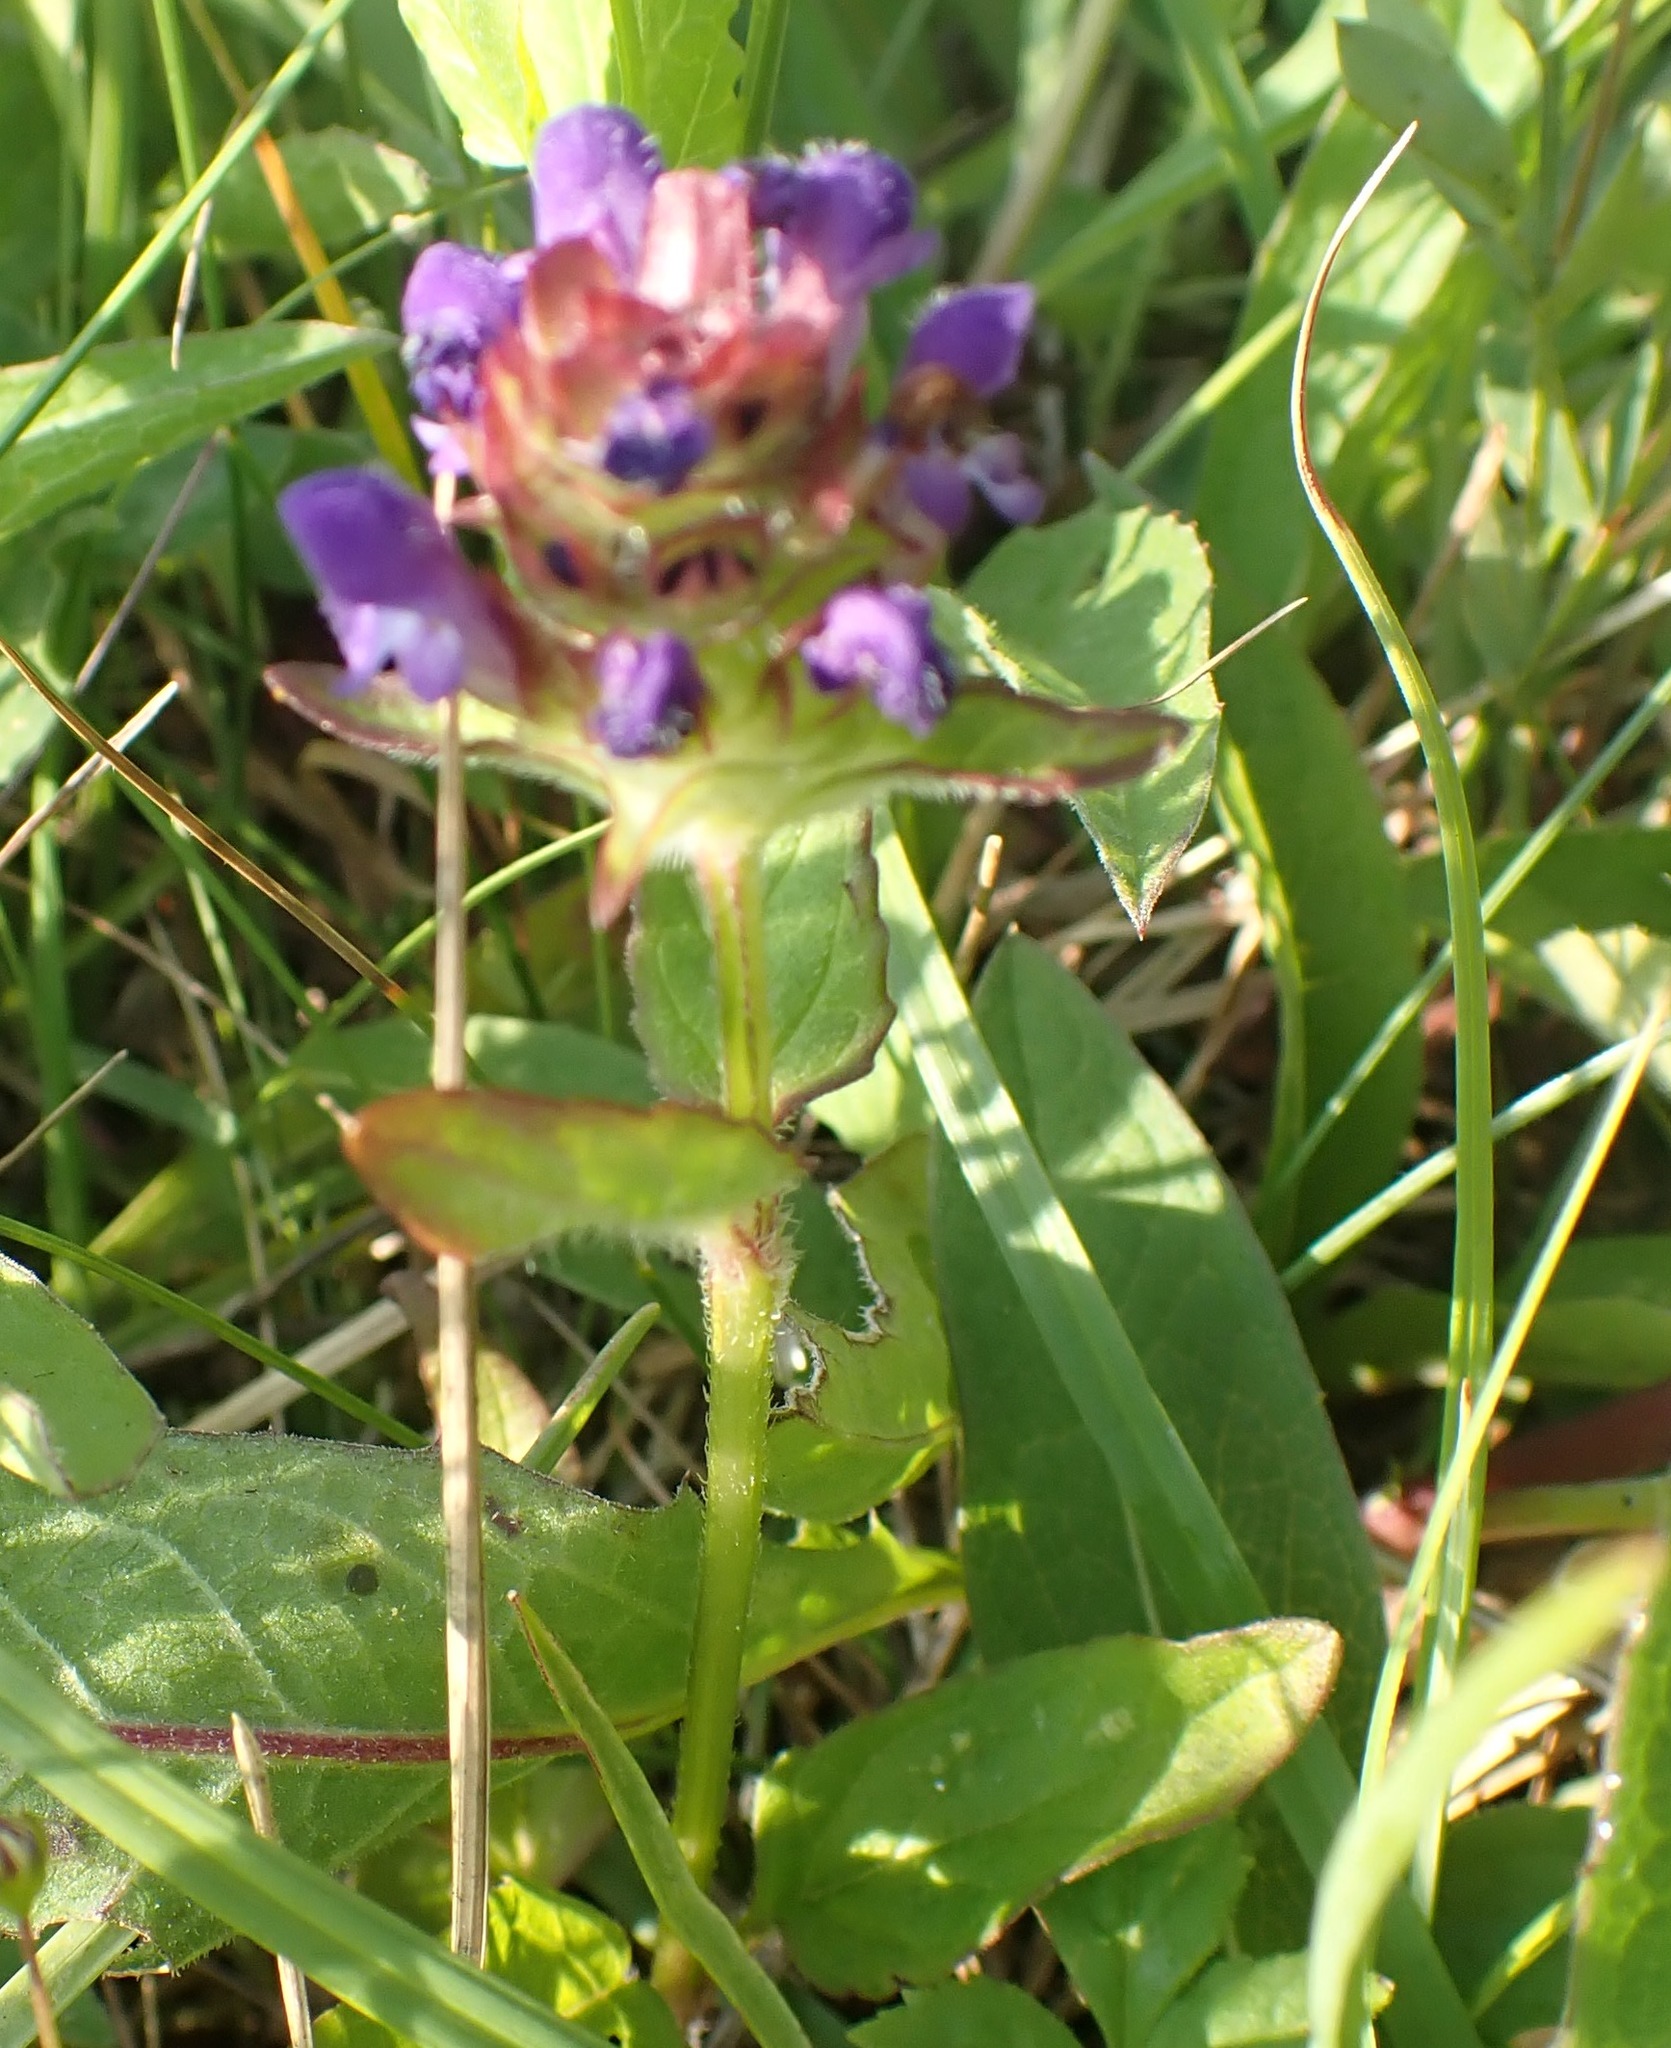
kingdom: Plantae
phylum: Tracheophyta
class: Magnoliopsida
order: Lamiales
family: Lamiaceae
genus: Prunella
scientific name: Prunella vulgaris
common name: Heal-all
